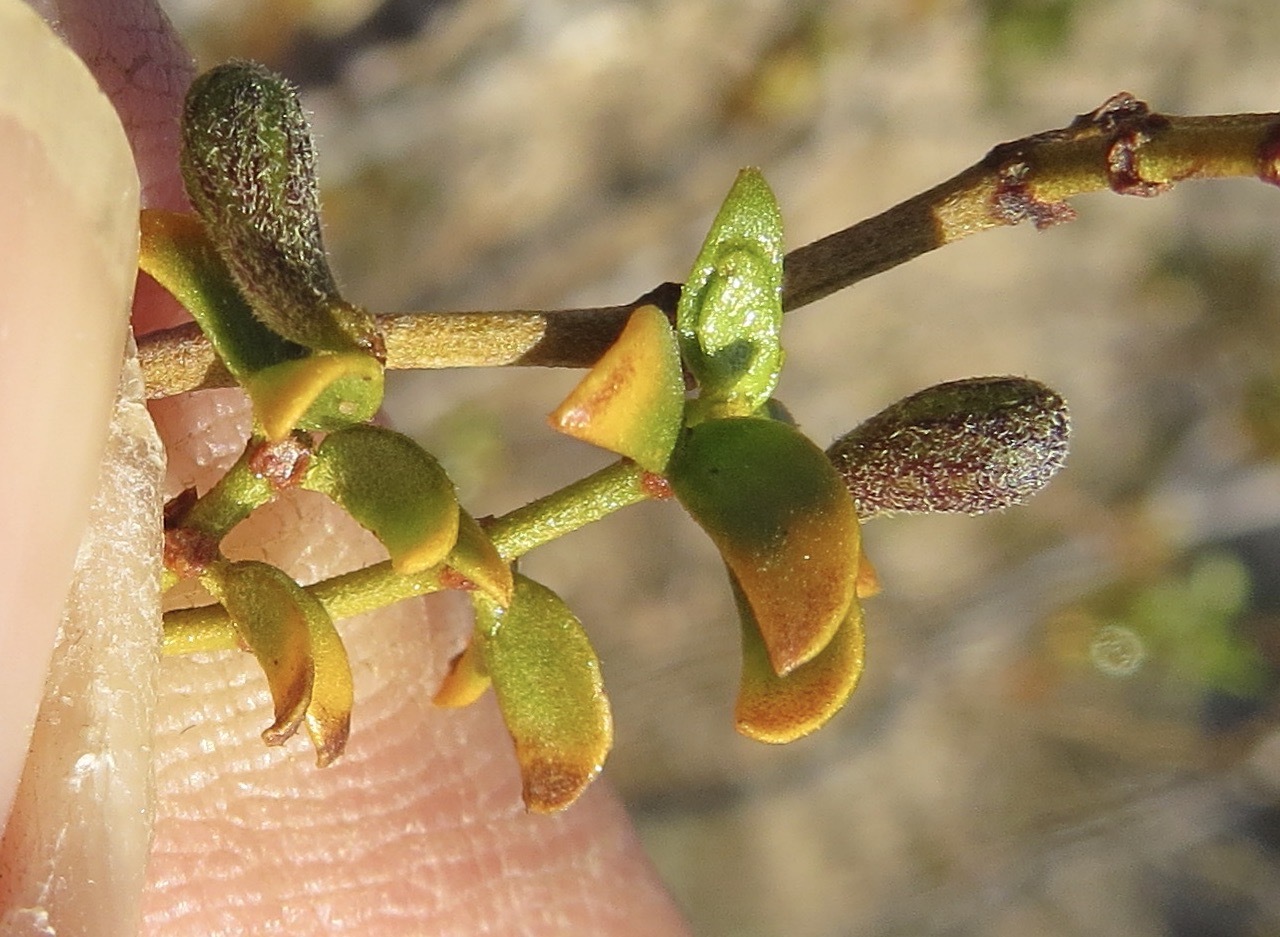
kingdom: Animalia
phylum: Arthropoda
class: Insecta
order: Diptera
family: Cecidomyiidae
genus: Asphondylia
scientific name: Asphondylia pilosa
